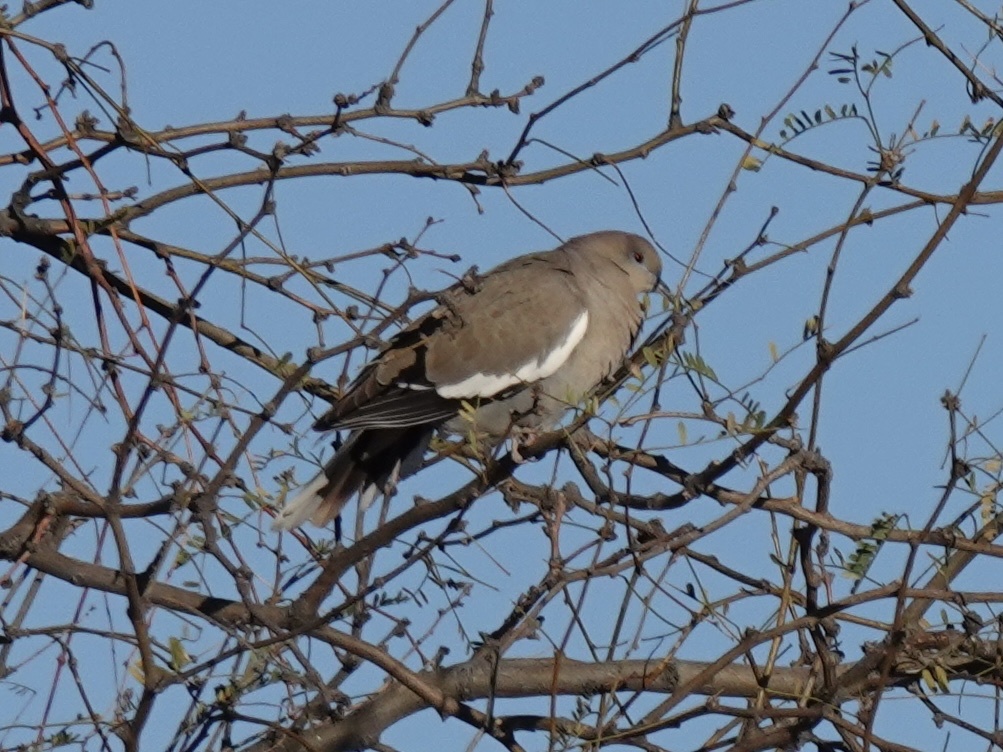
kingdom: Animalia
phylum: Chordata
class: Aves
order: Columbiformes
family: Columbidae
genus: Zenaida
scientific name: Zenaida asiatica
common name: White-winged dove
